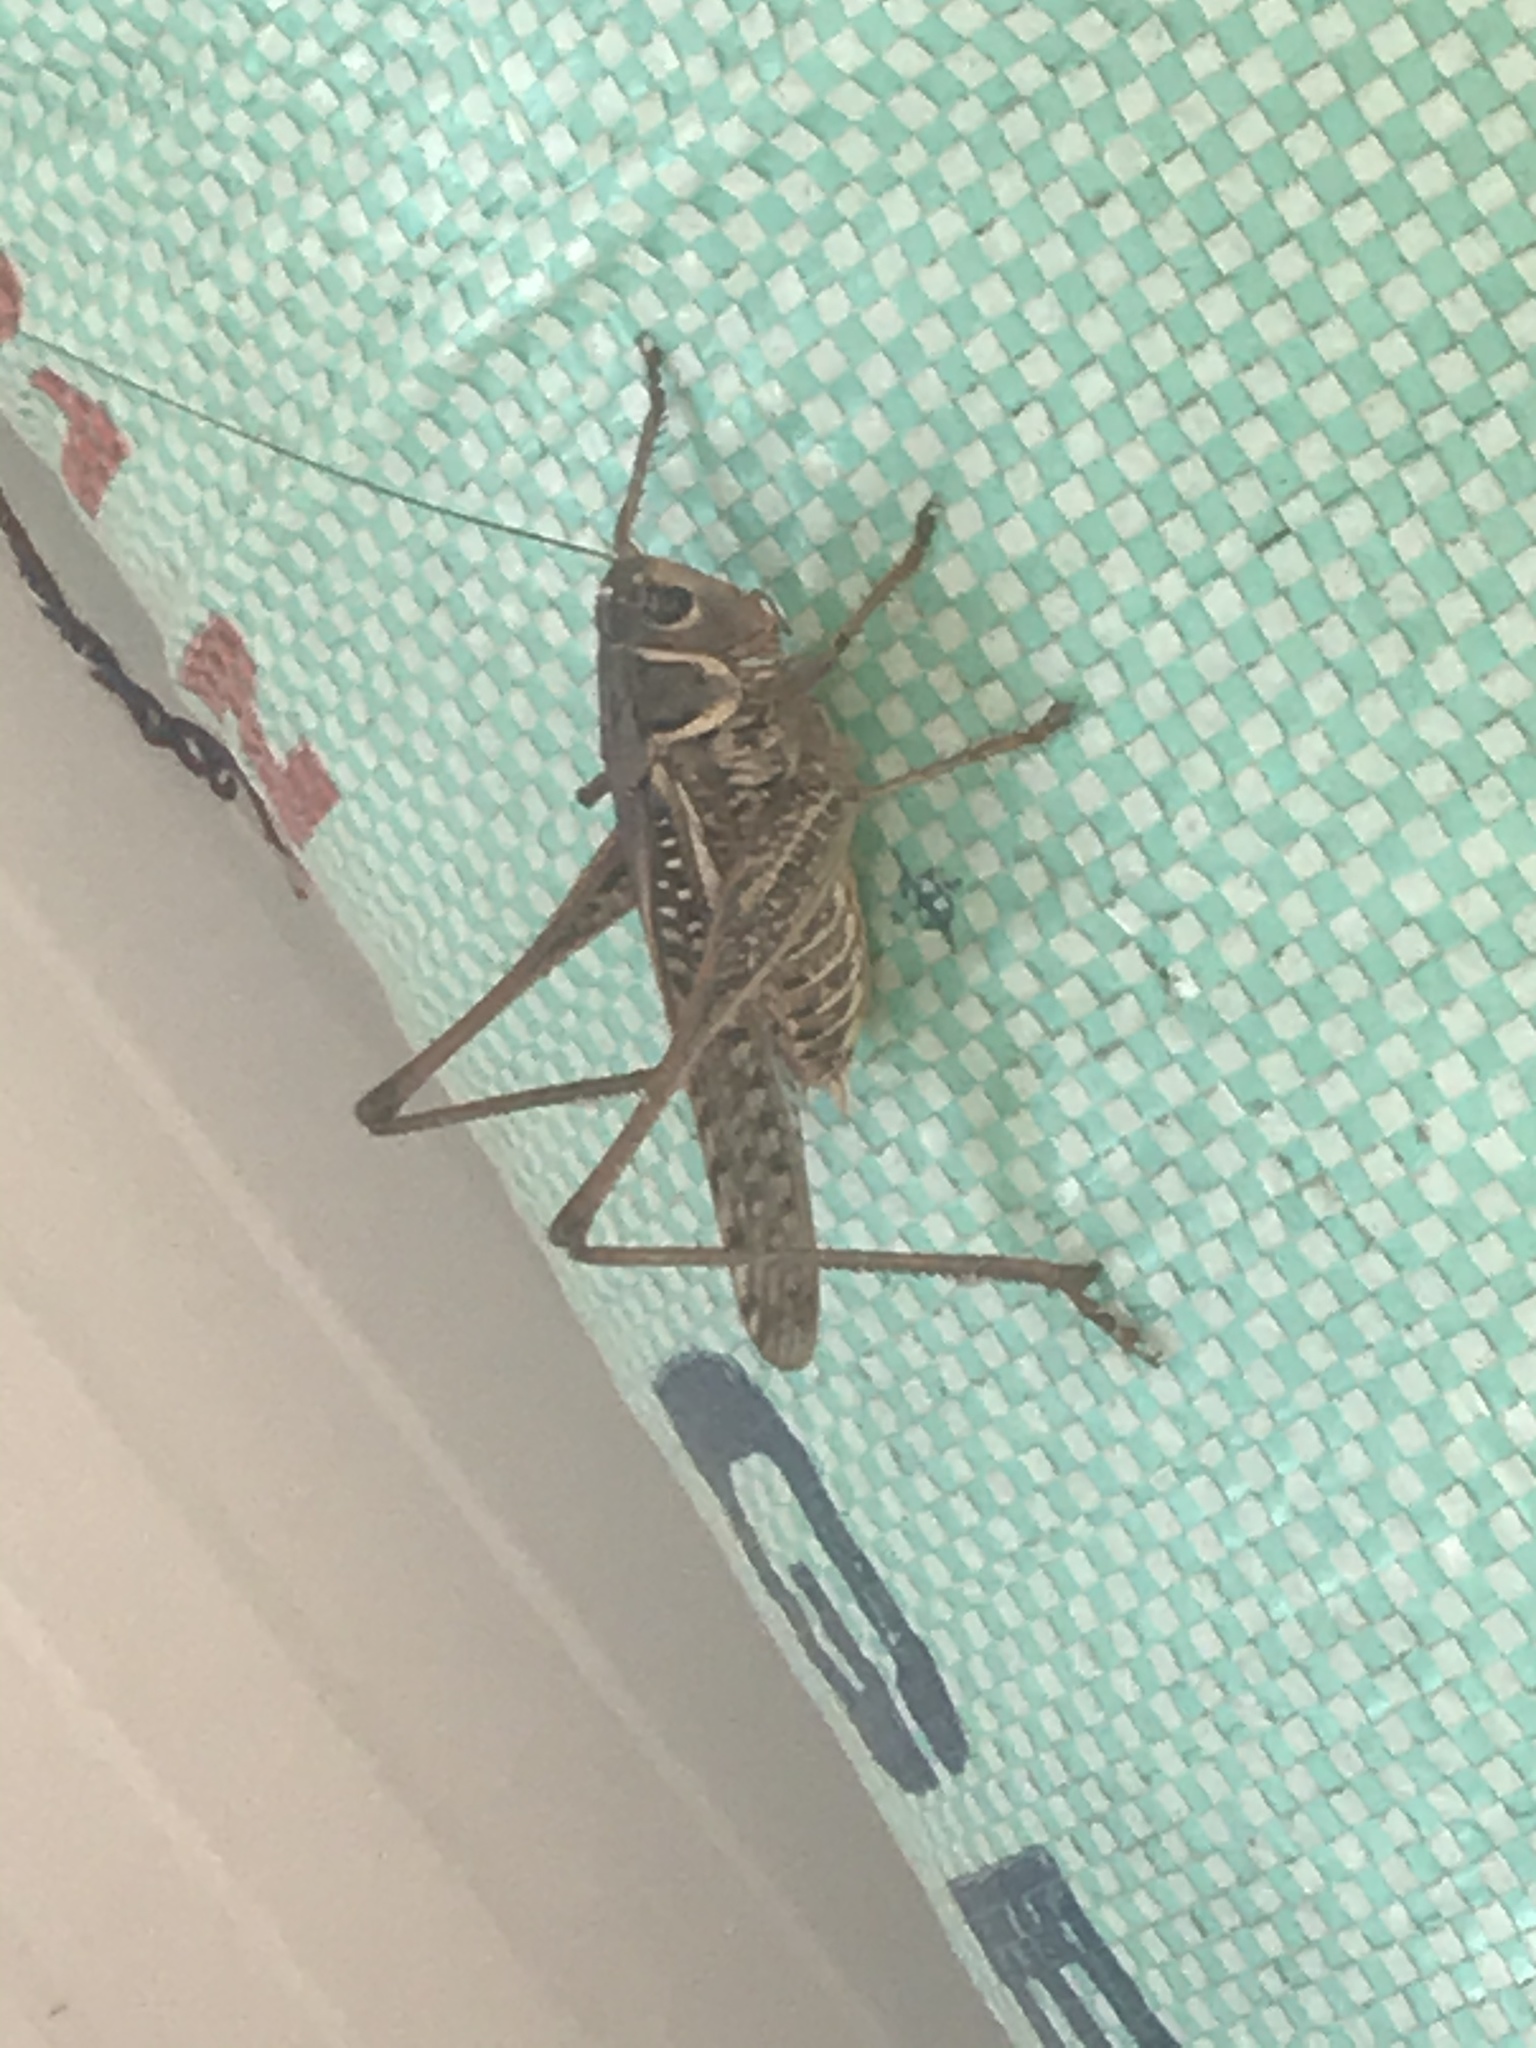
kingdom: Animalia
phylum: Arthropoda
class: Insecta
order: Orthoptera
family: Tettigoniidae
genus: Decticus
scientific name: Decticus albifrons
